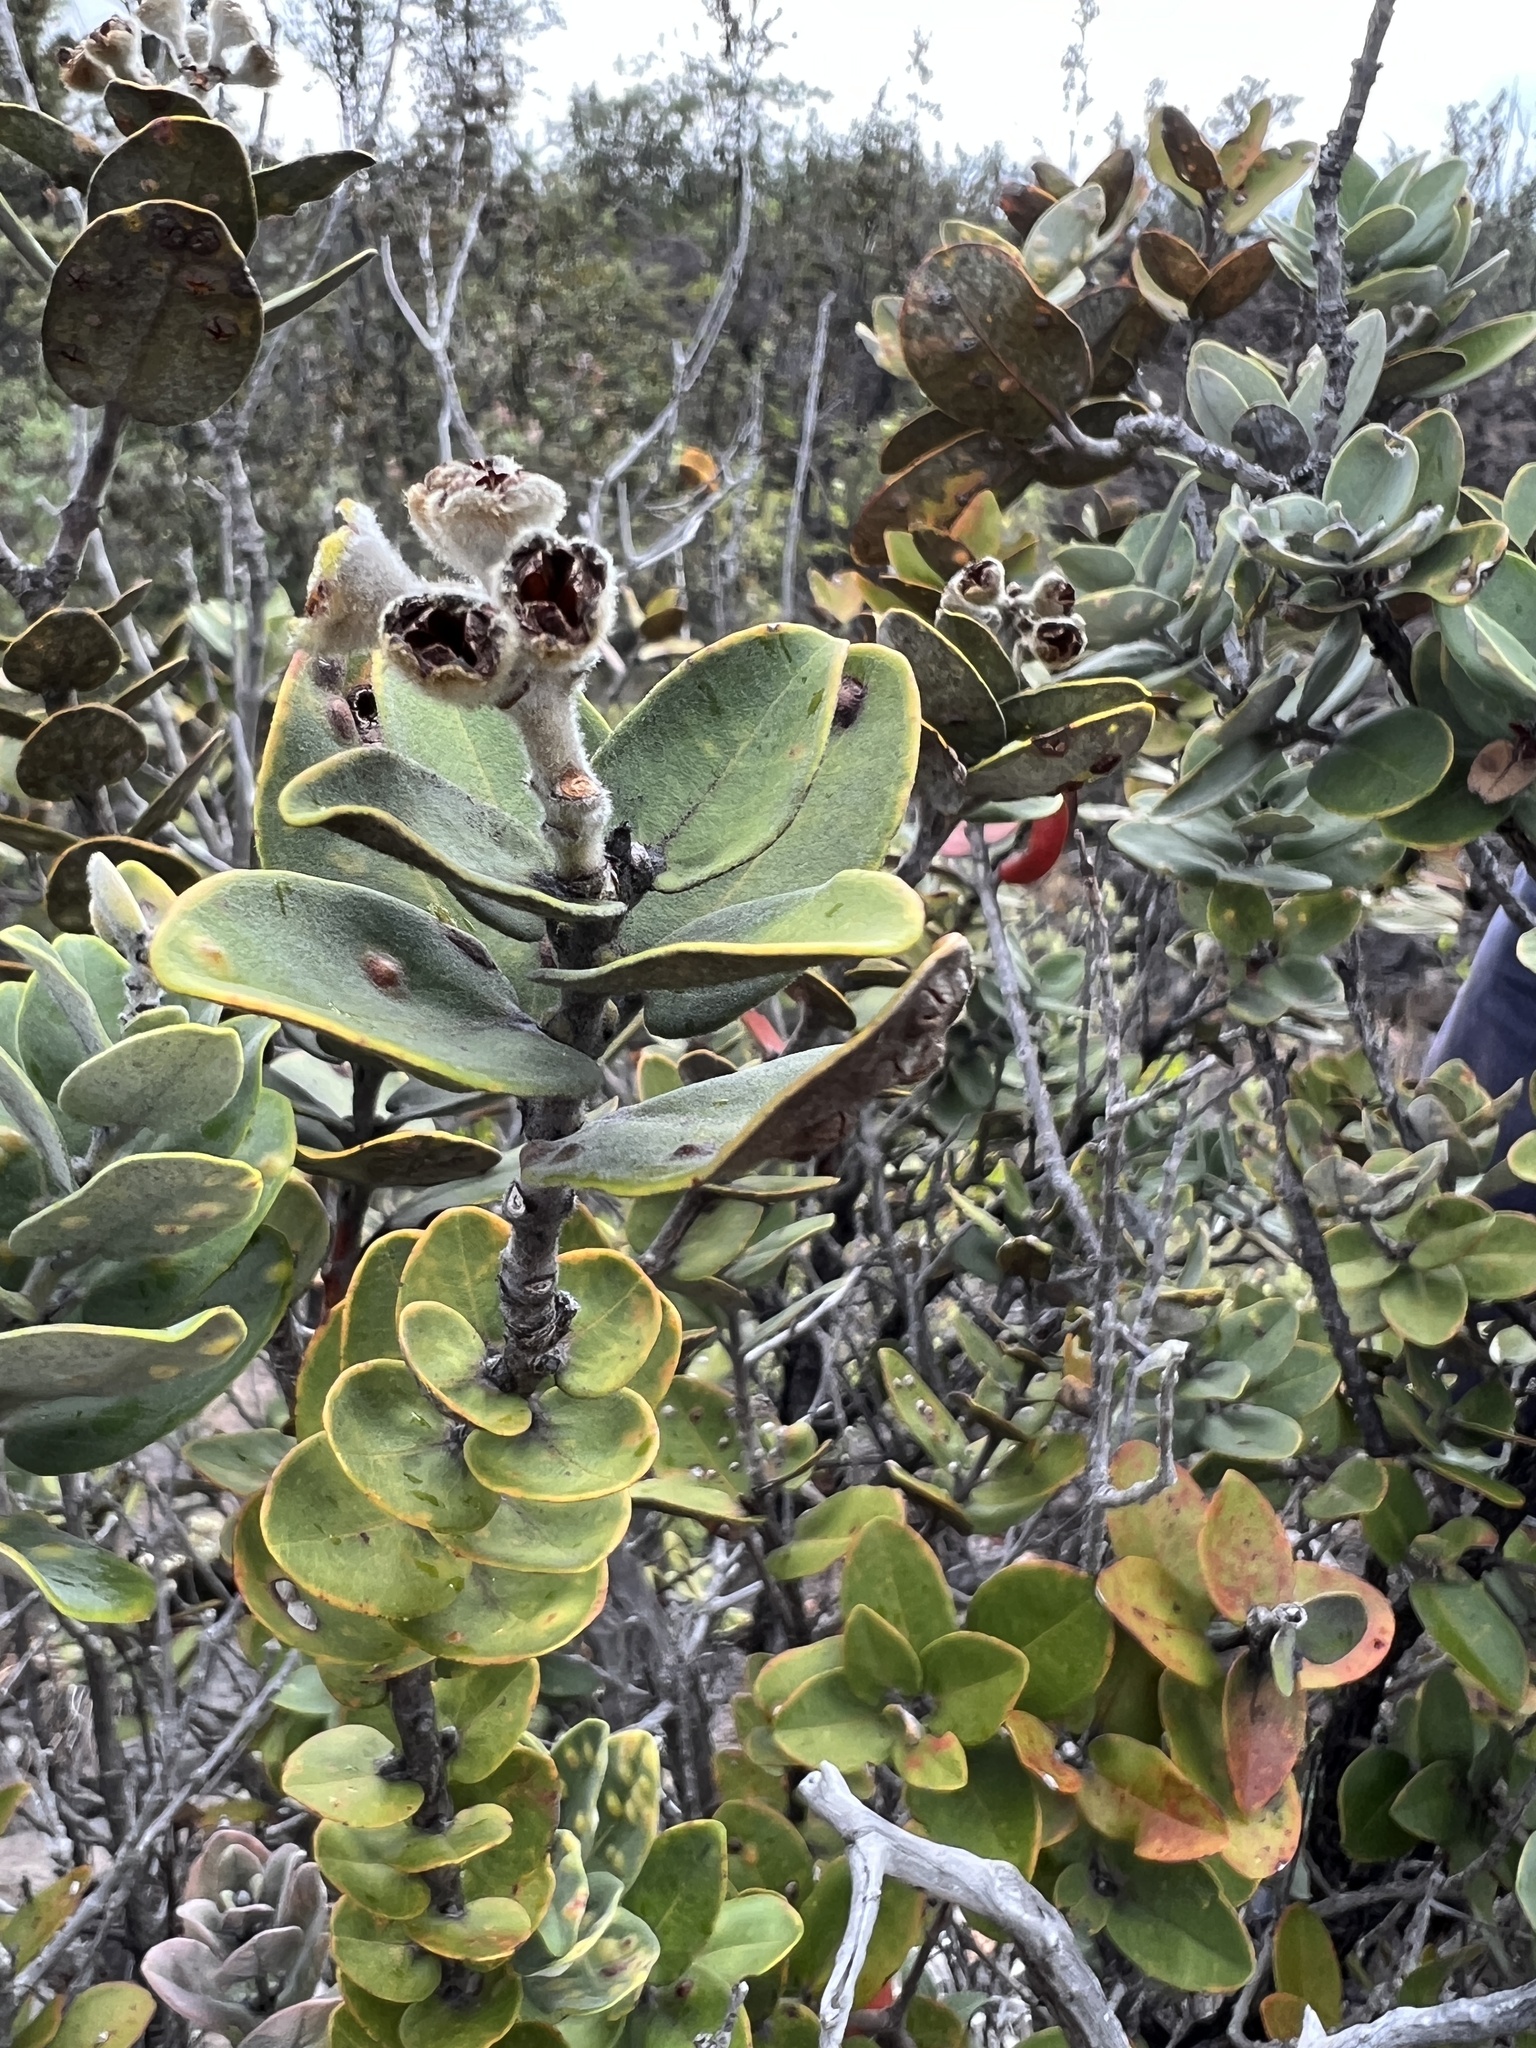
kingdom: Plantae
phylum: Tracheophyta
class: Magnoliopsida
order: Myrtales
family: Myrtaceae
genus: Metrosideros
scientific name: Metrosideros polymorpha
